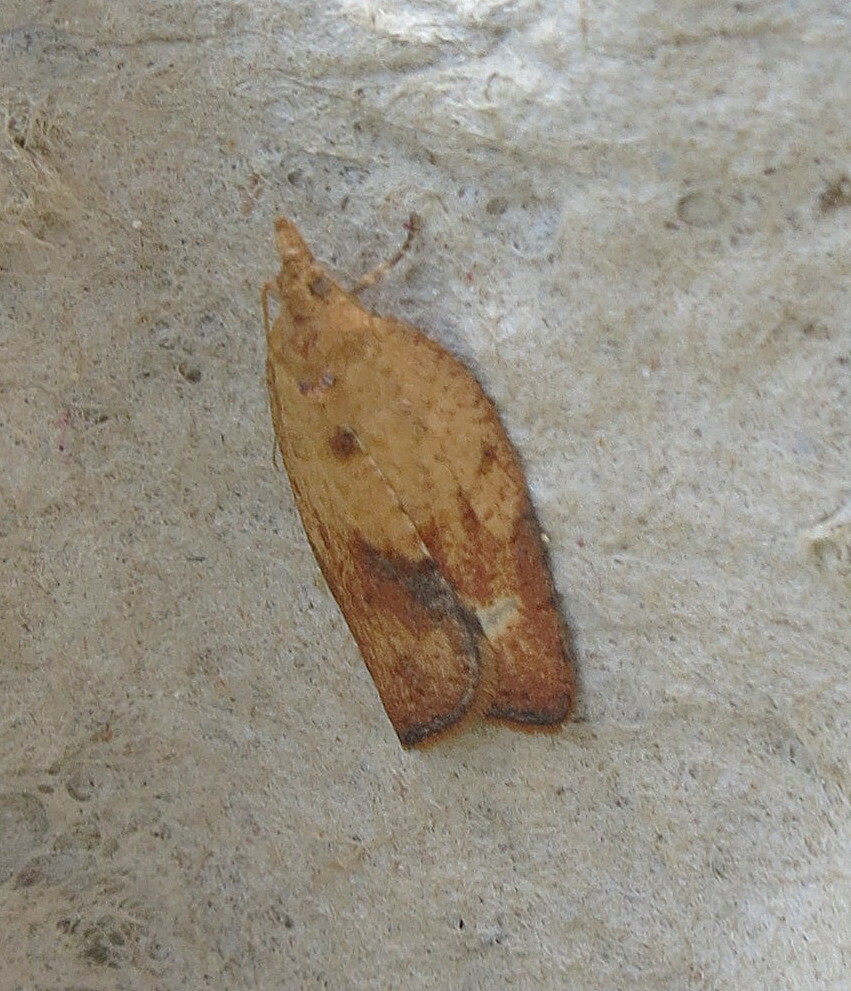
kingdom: Animalia
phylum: Arthropoda
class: Insecta
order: Lepidoptera
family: Tortricidae
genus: Epiphyas
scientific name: Epiphyas postvittana
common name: Light brown apple moth
